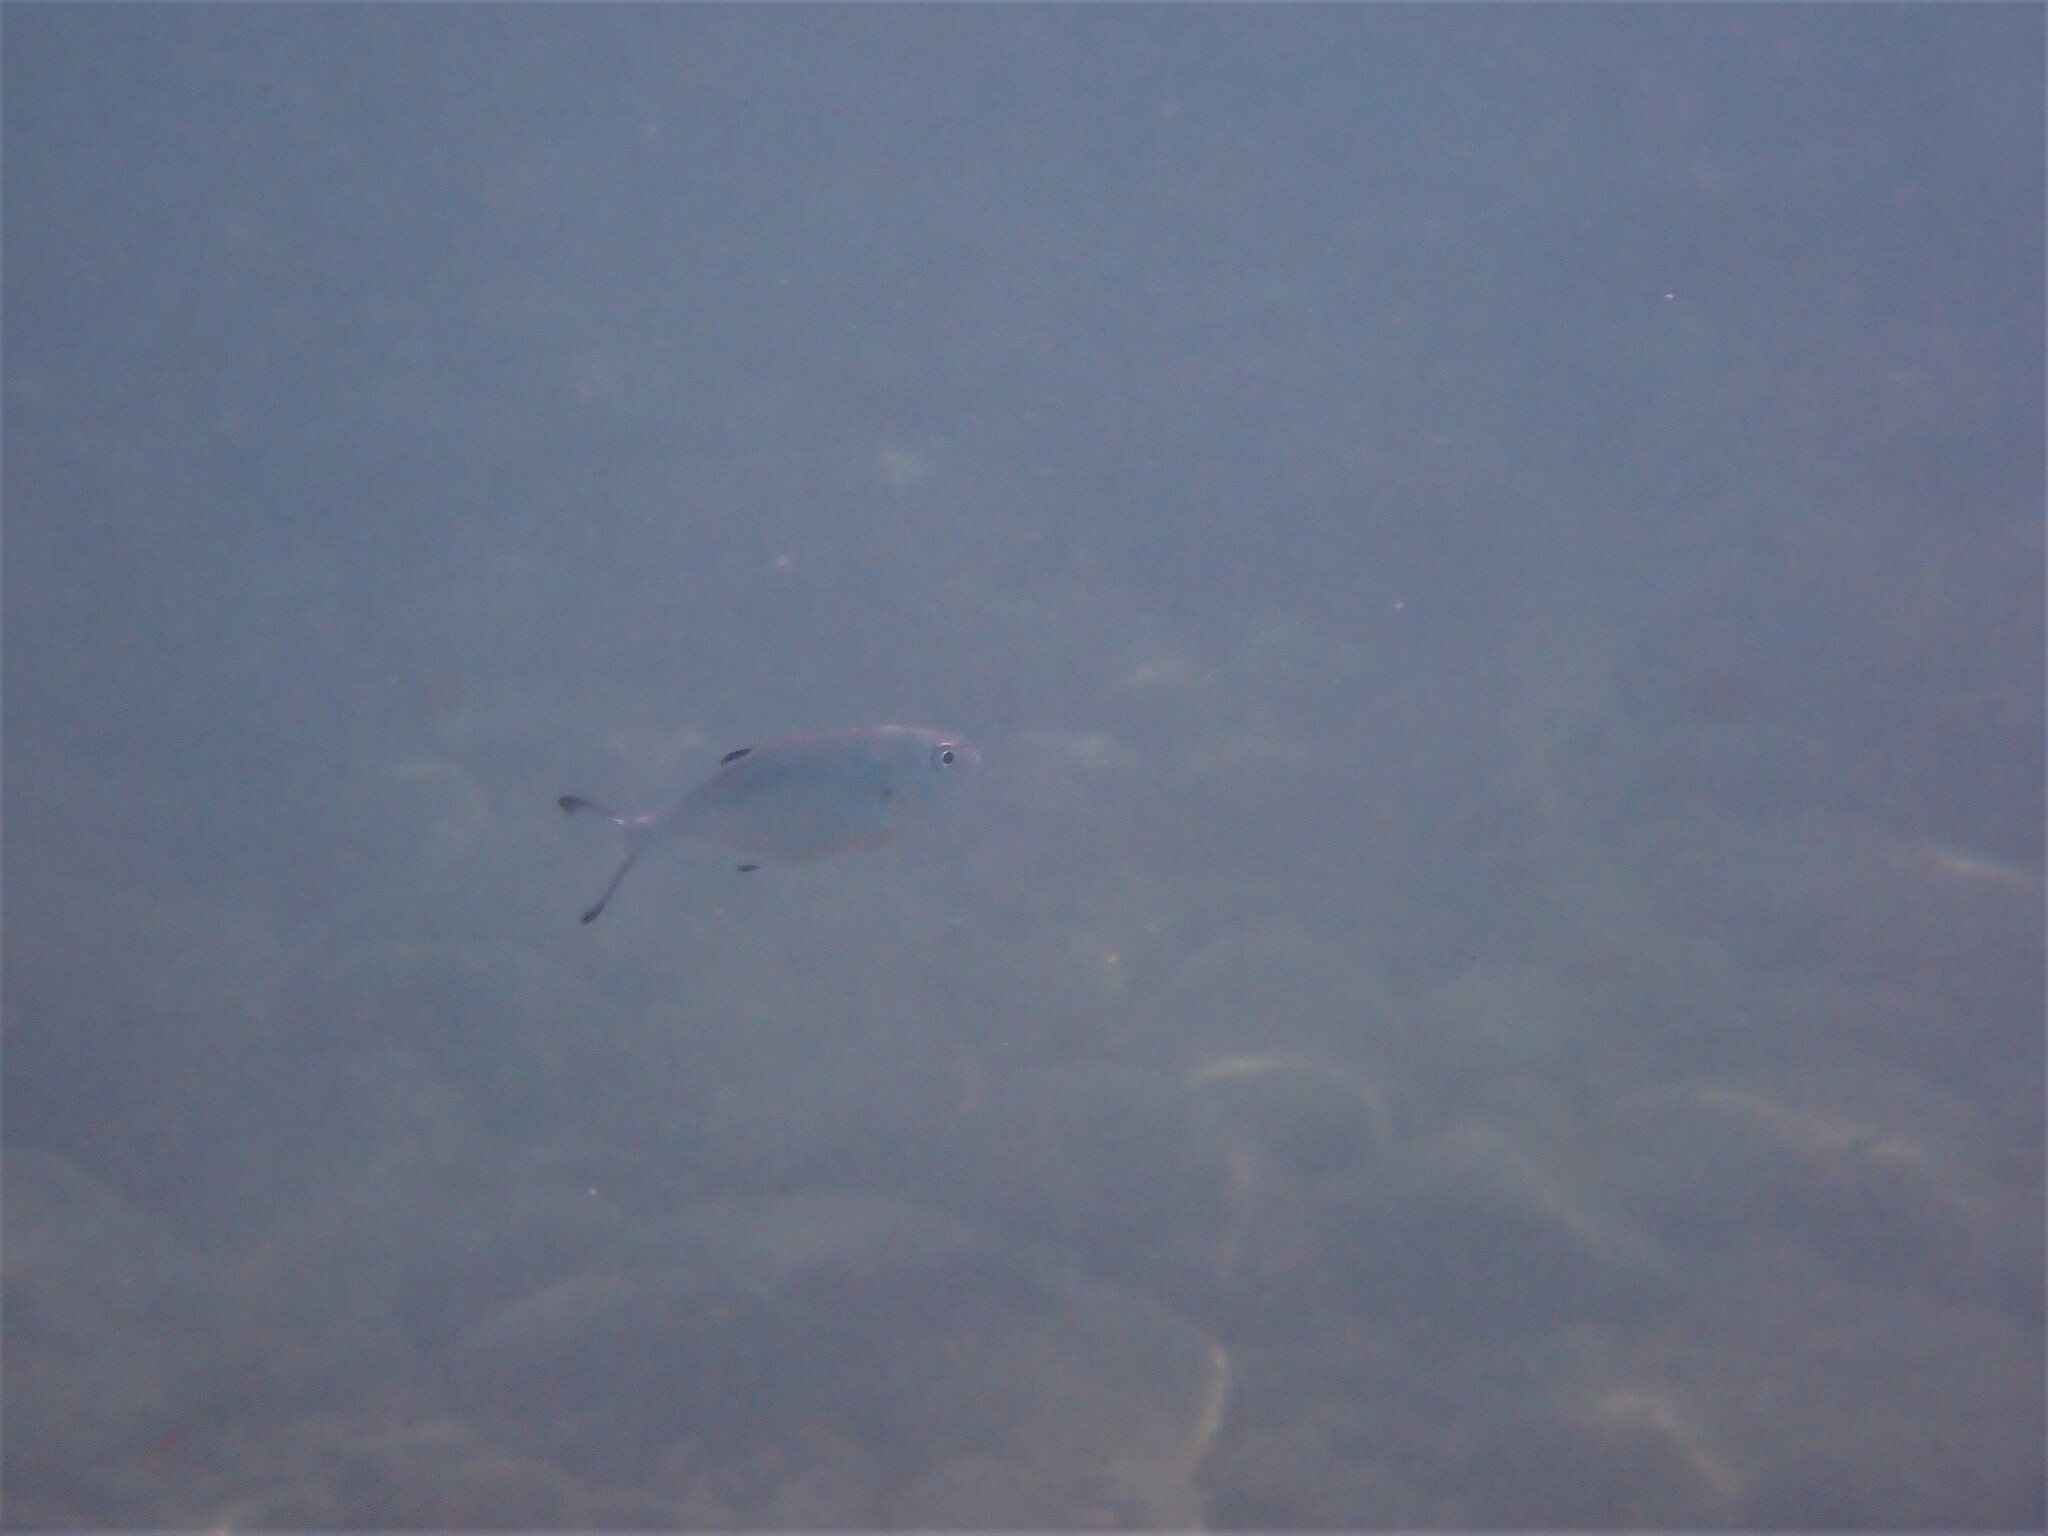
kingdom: Animalia
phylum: Chordata
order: Perciformes
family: Carangidae
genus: Trachinotus
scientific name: Trachinotus ovatus
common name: Pompano
